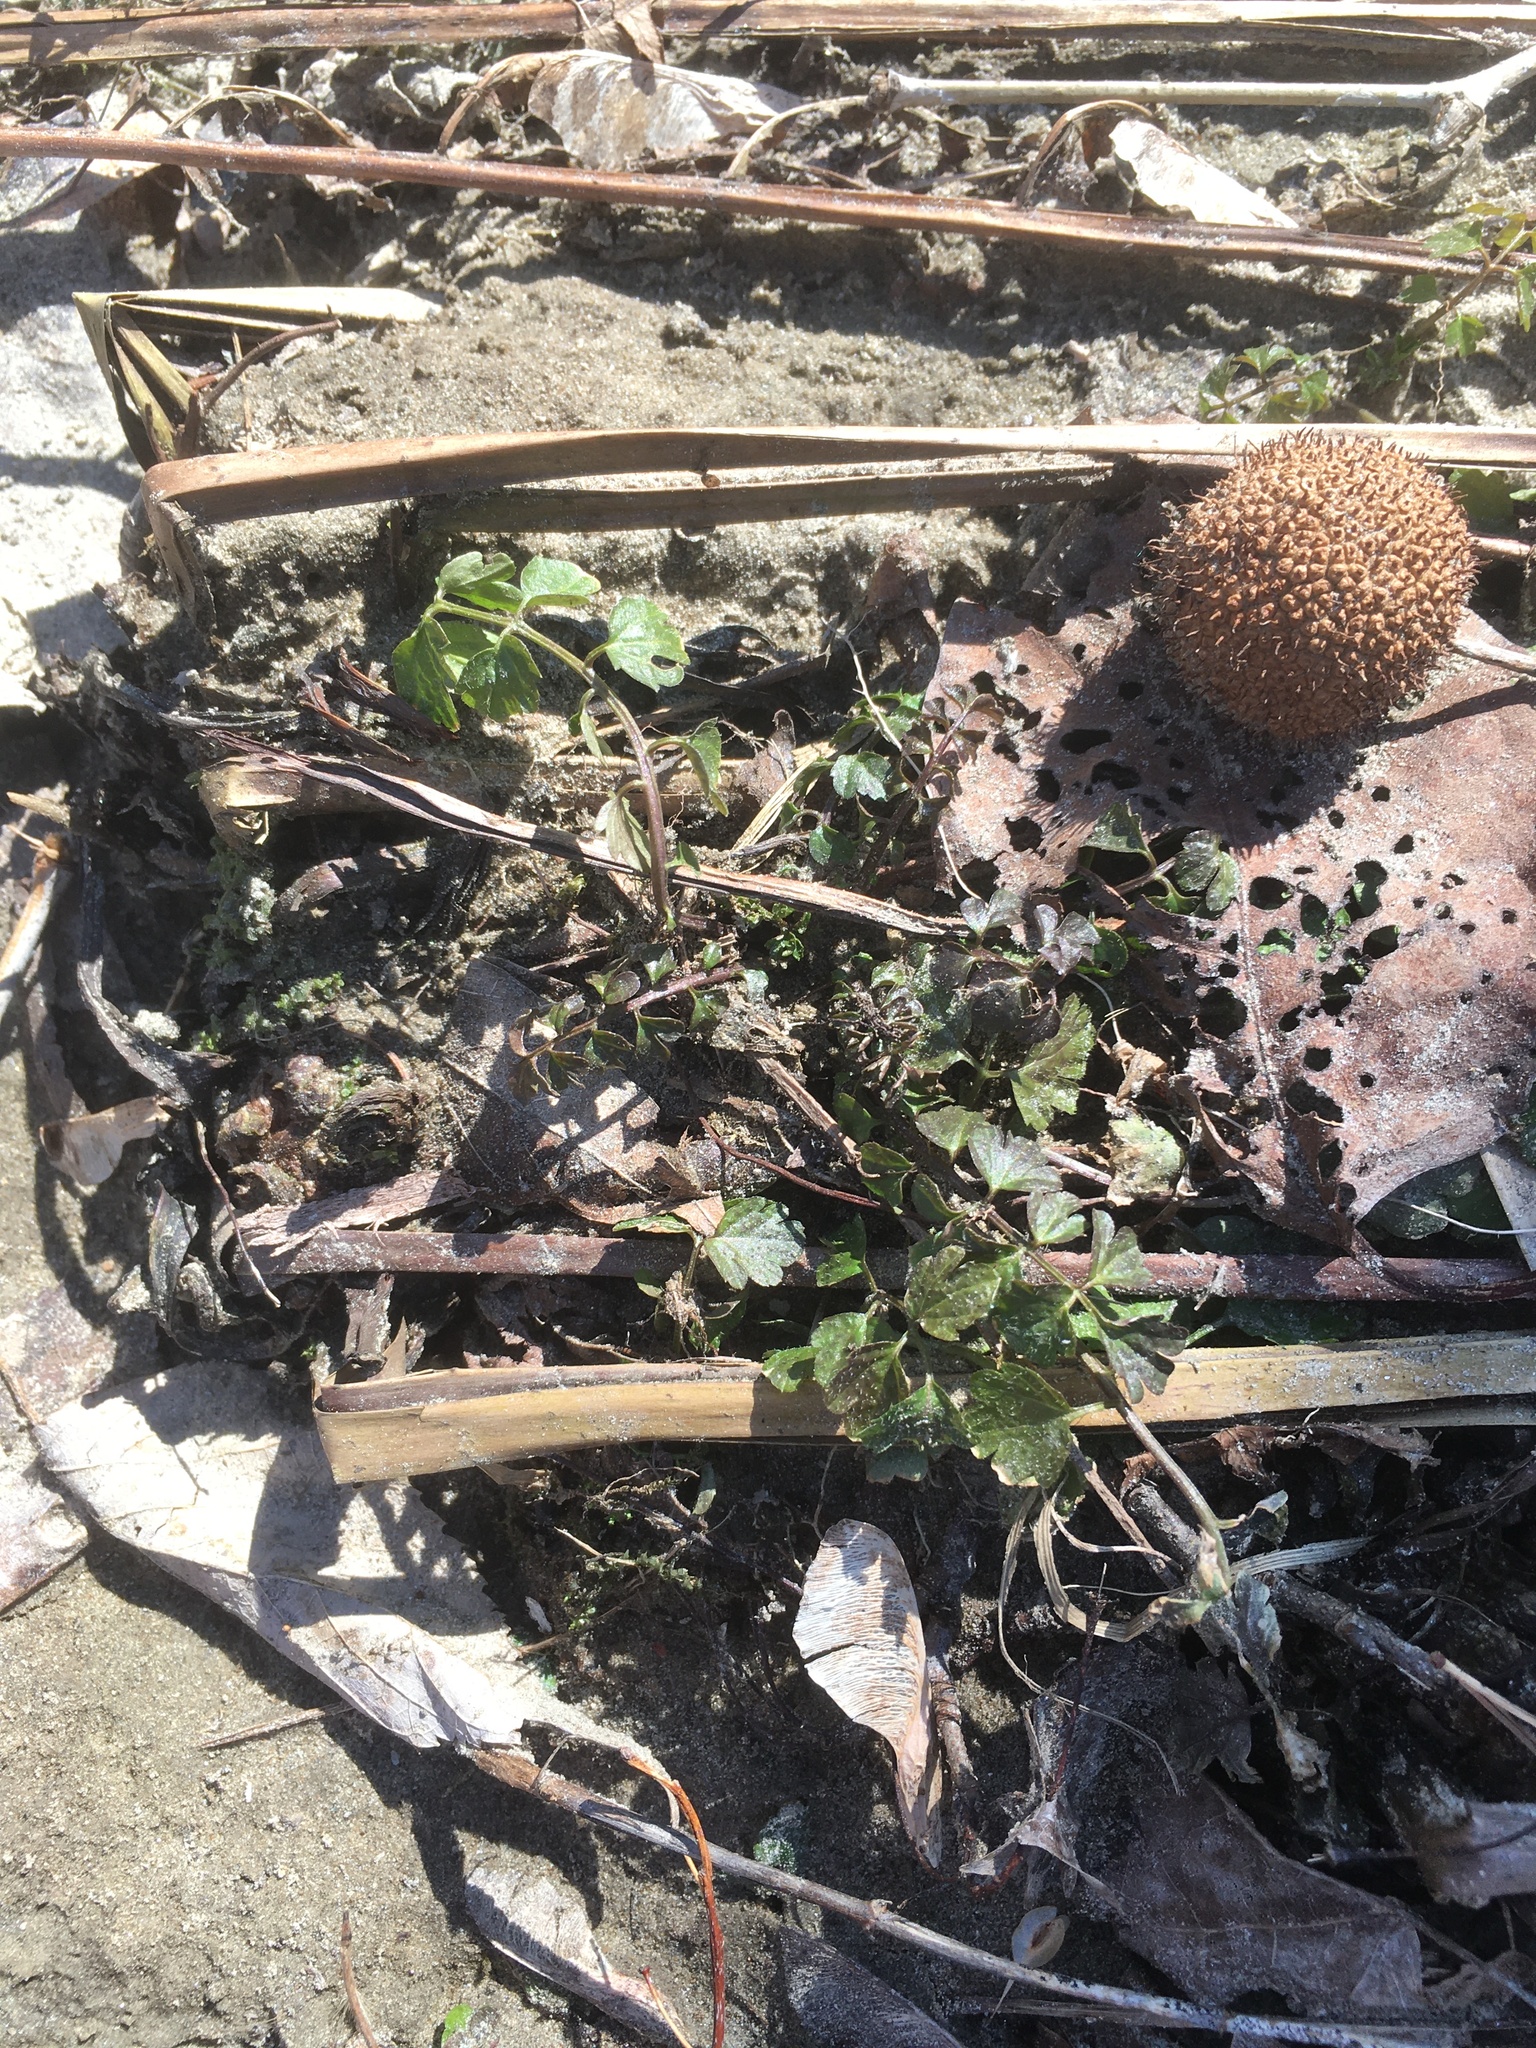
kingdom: Plantae
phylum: Tracheophyta
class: Magnoliopsida
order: Brassicales
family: Brassicaceae
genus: Cardamine
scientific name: Cardamine impatiens
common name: Narrow-leaved bitter-cress
